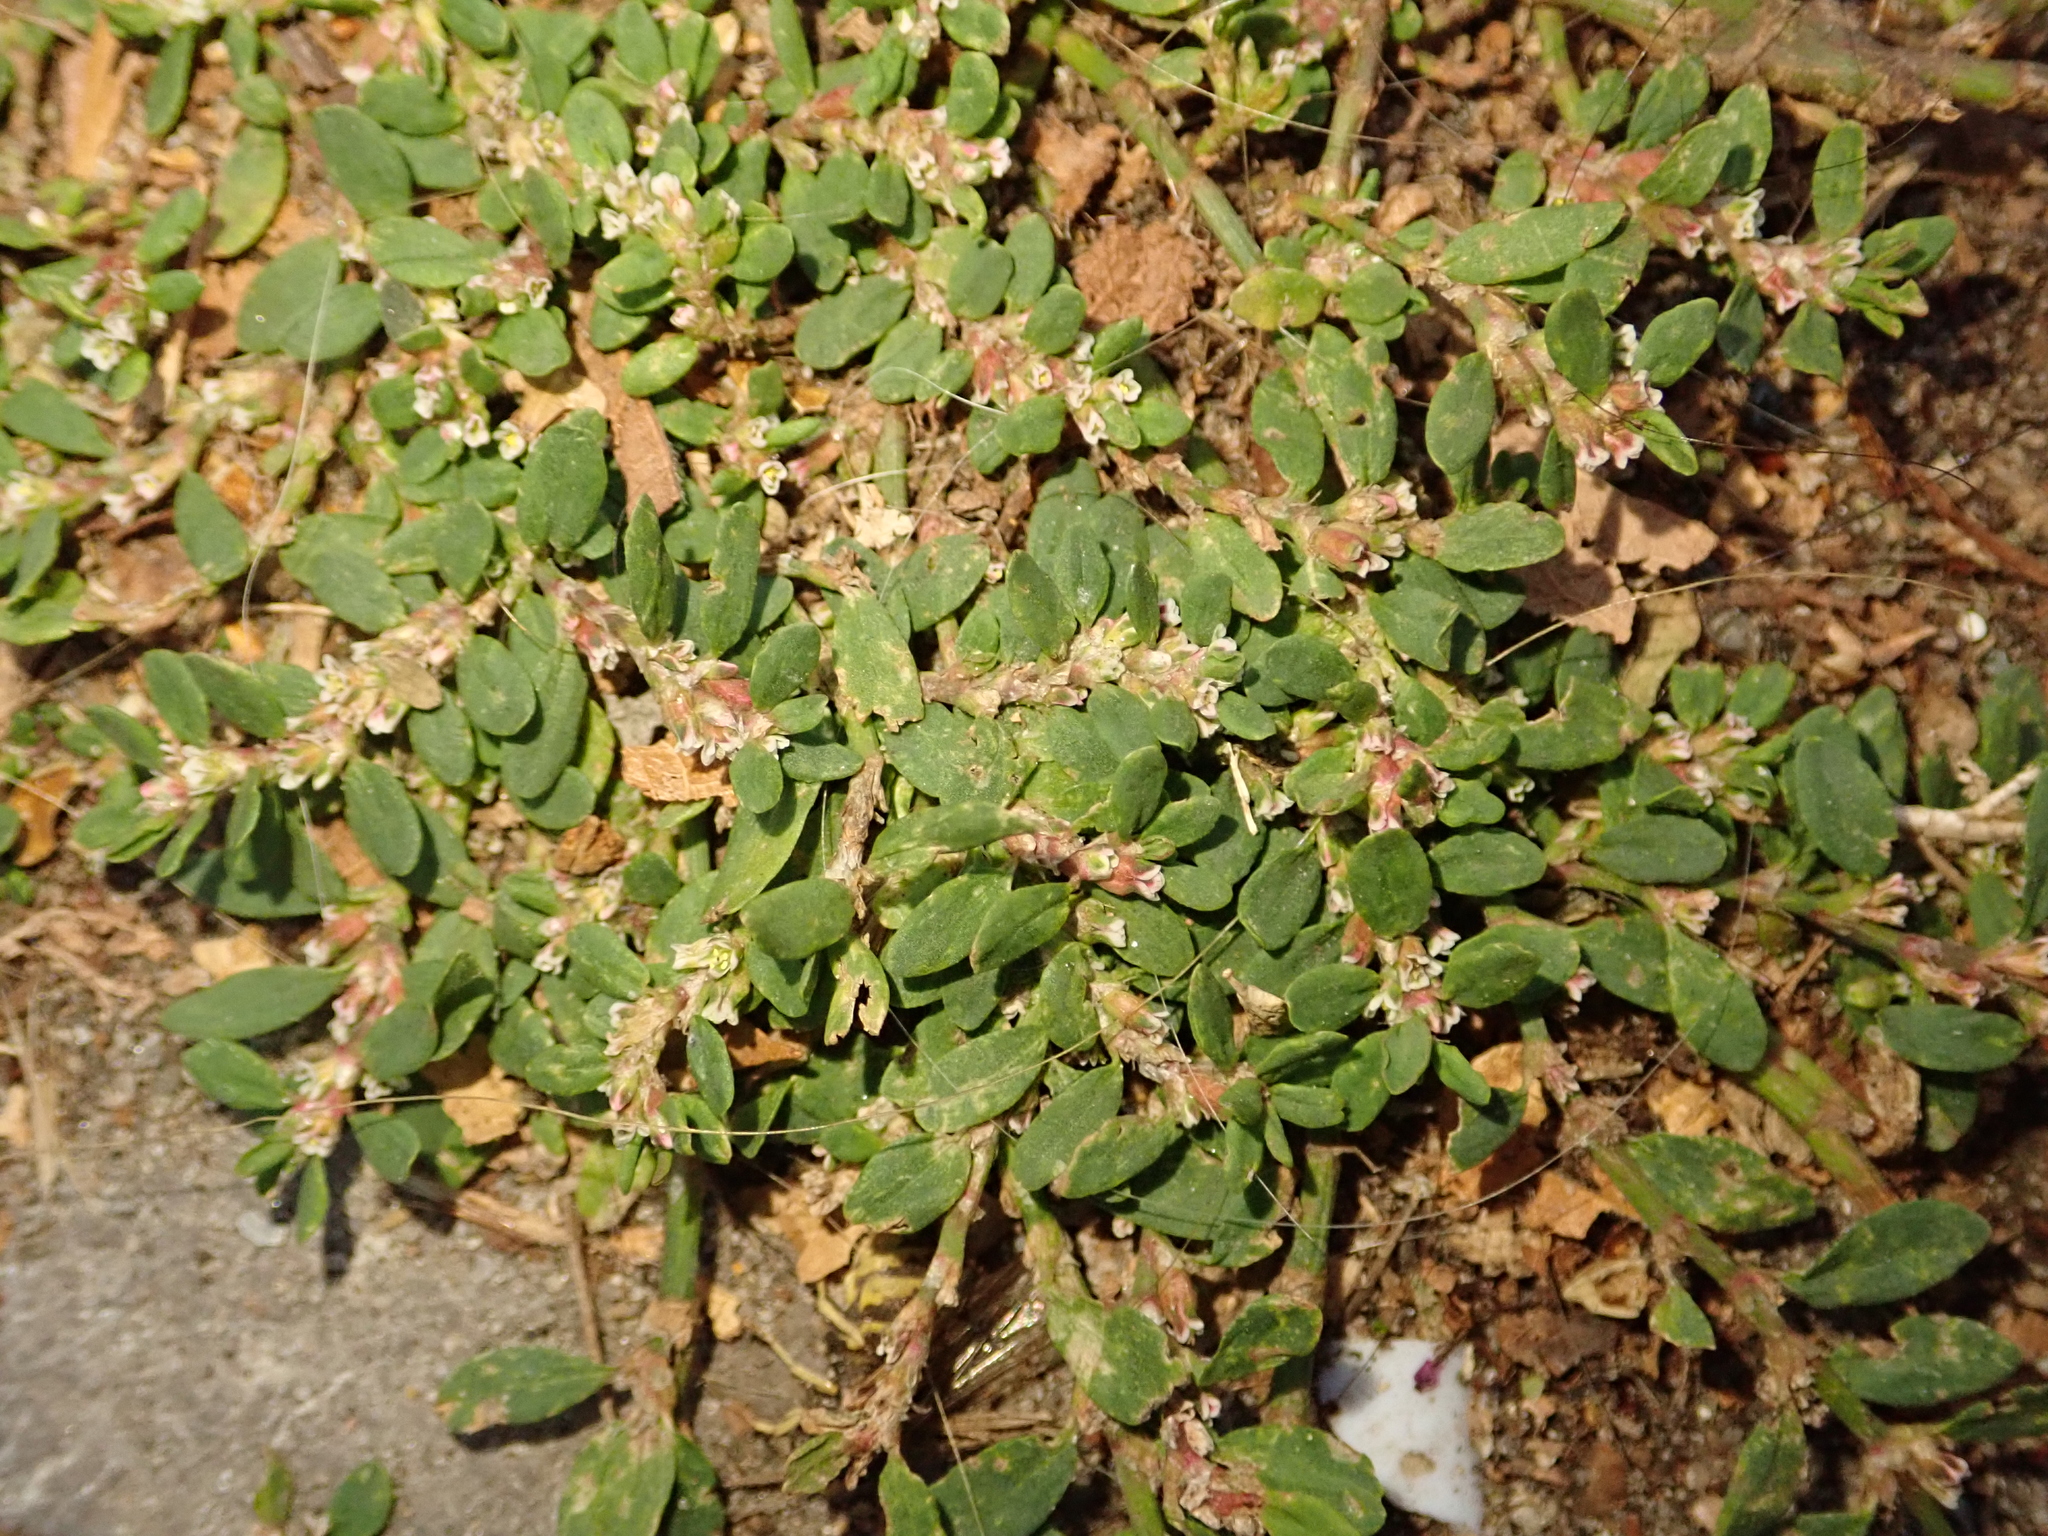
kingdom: Plantae
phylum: Tracheophyta
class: Magnoliopsida
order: Caryophyllales
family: Polygonaceae
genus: Polygonum
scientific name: Polygonum arenastrum
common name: Equal-leaved knotgrass
